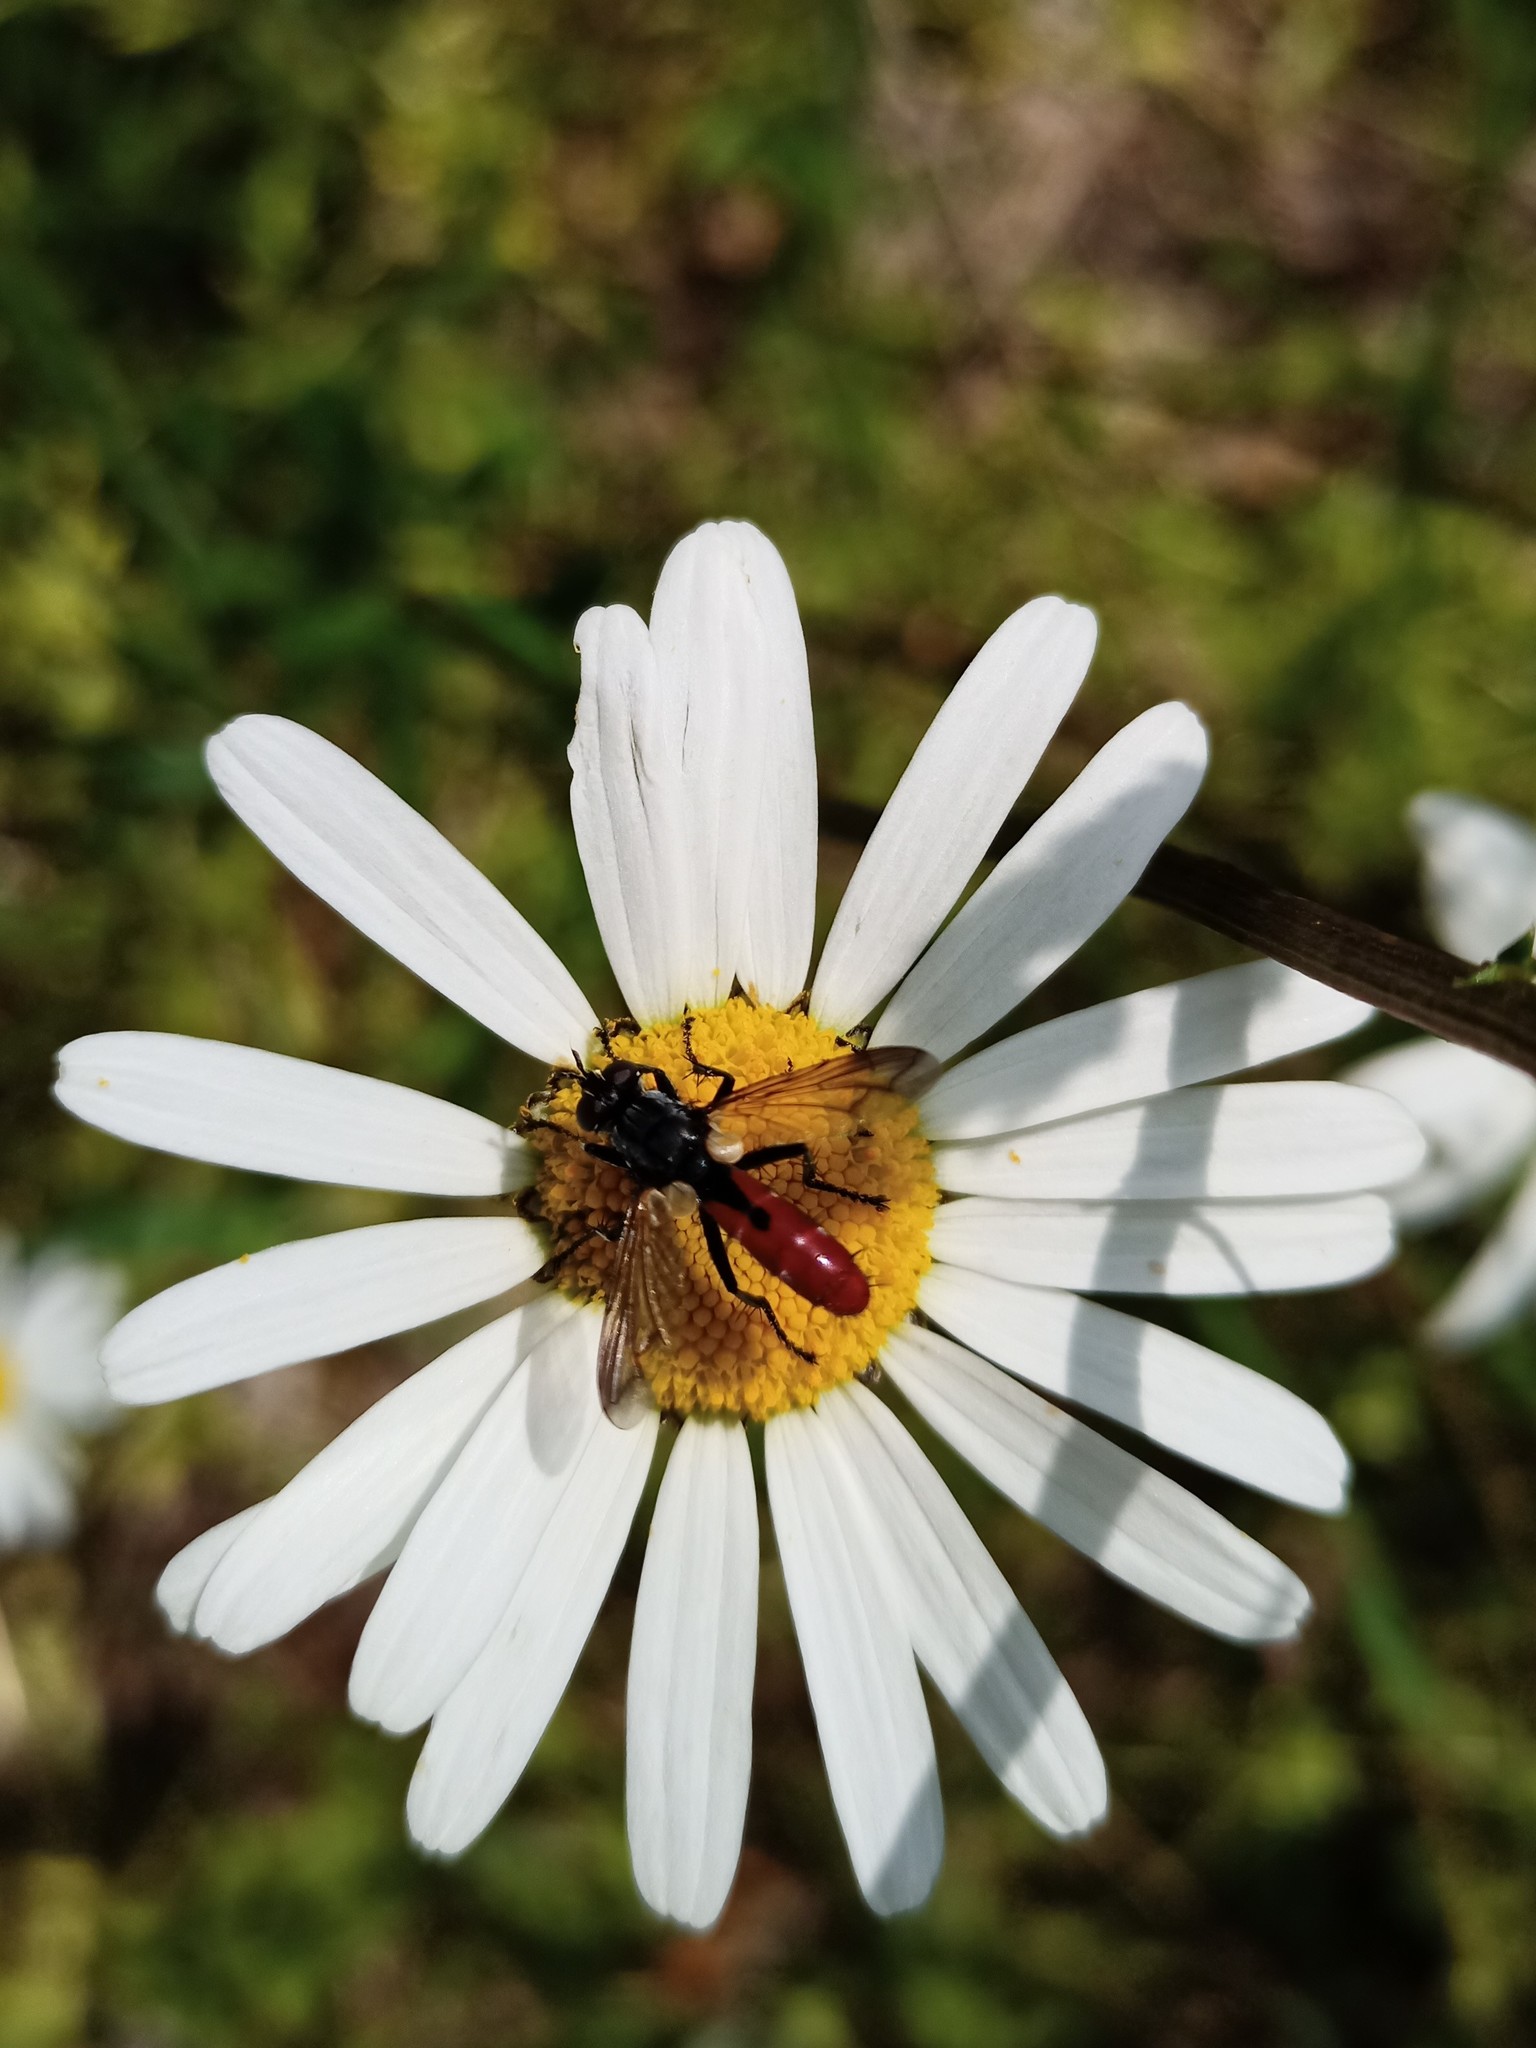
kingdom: Animalia
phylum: Arthropoda
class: Insecta
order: Diptera
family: Tachinidae
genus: Cylindromyia
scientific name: Cylindromyia bicolor
